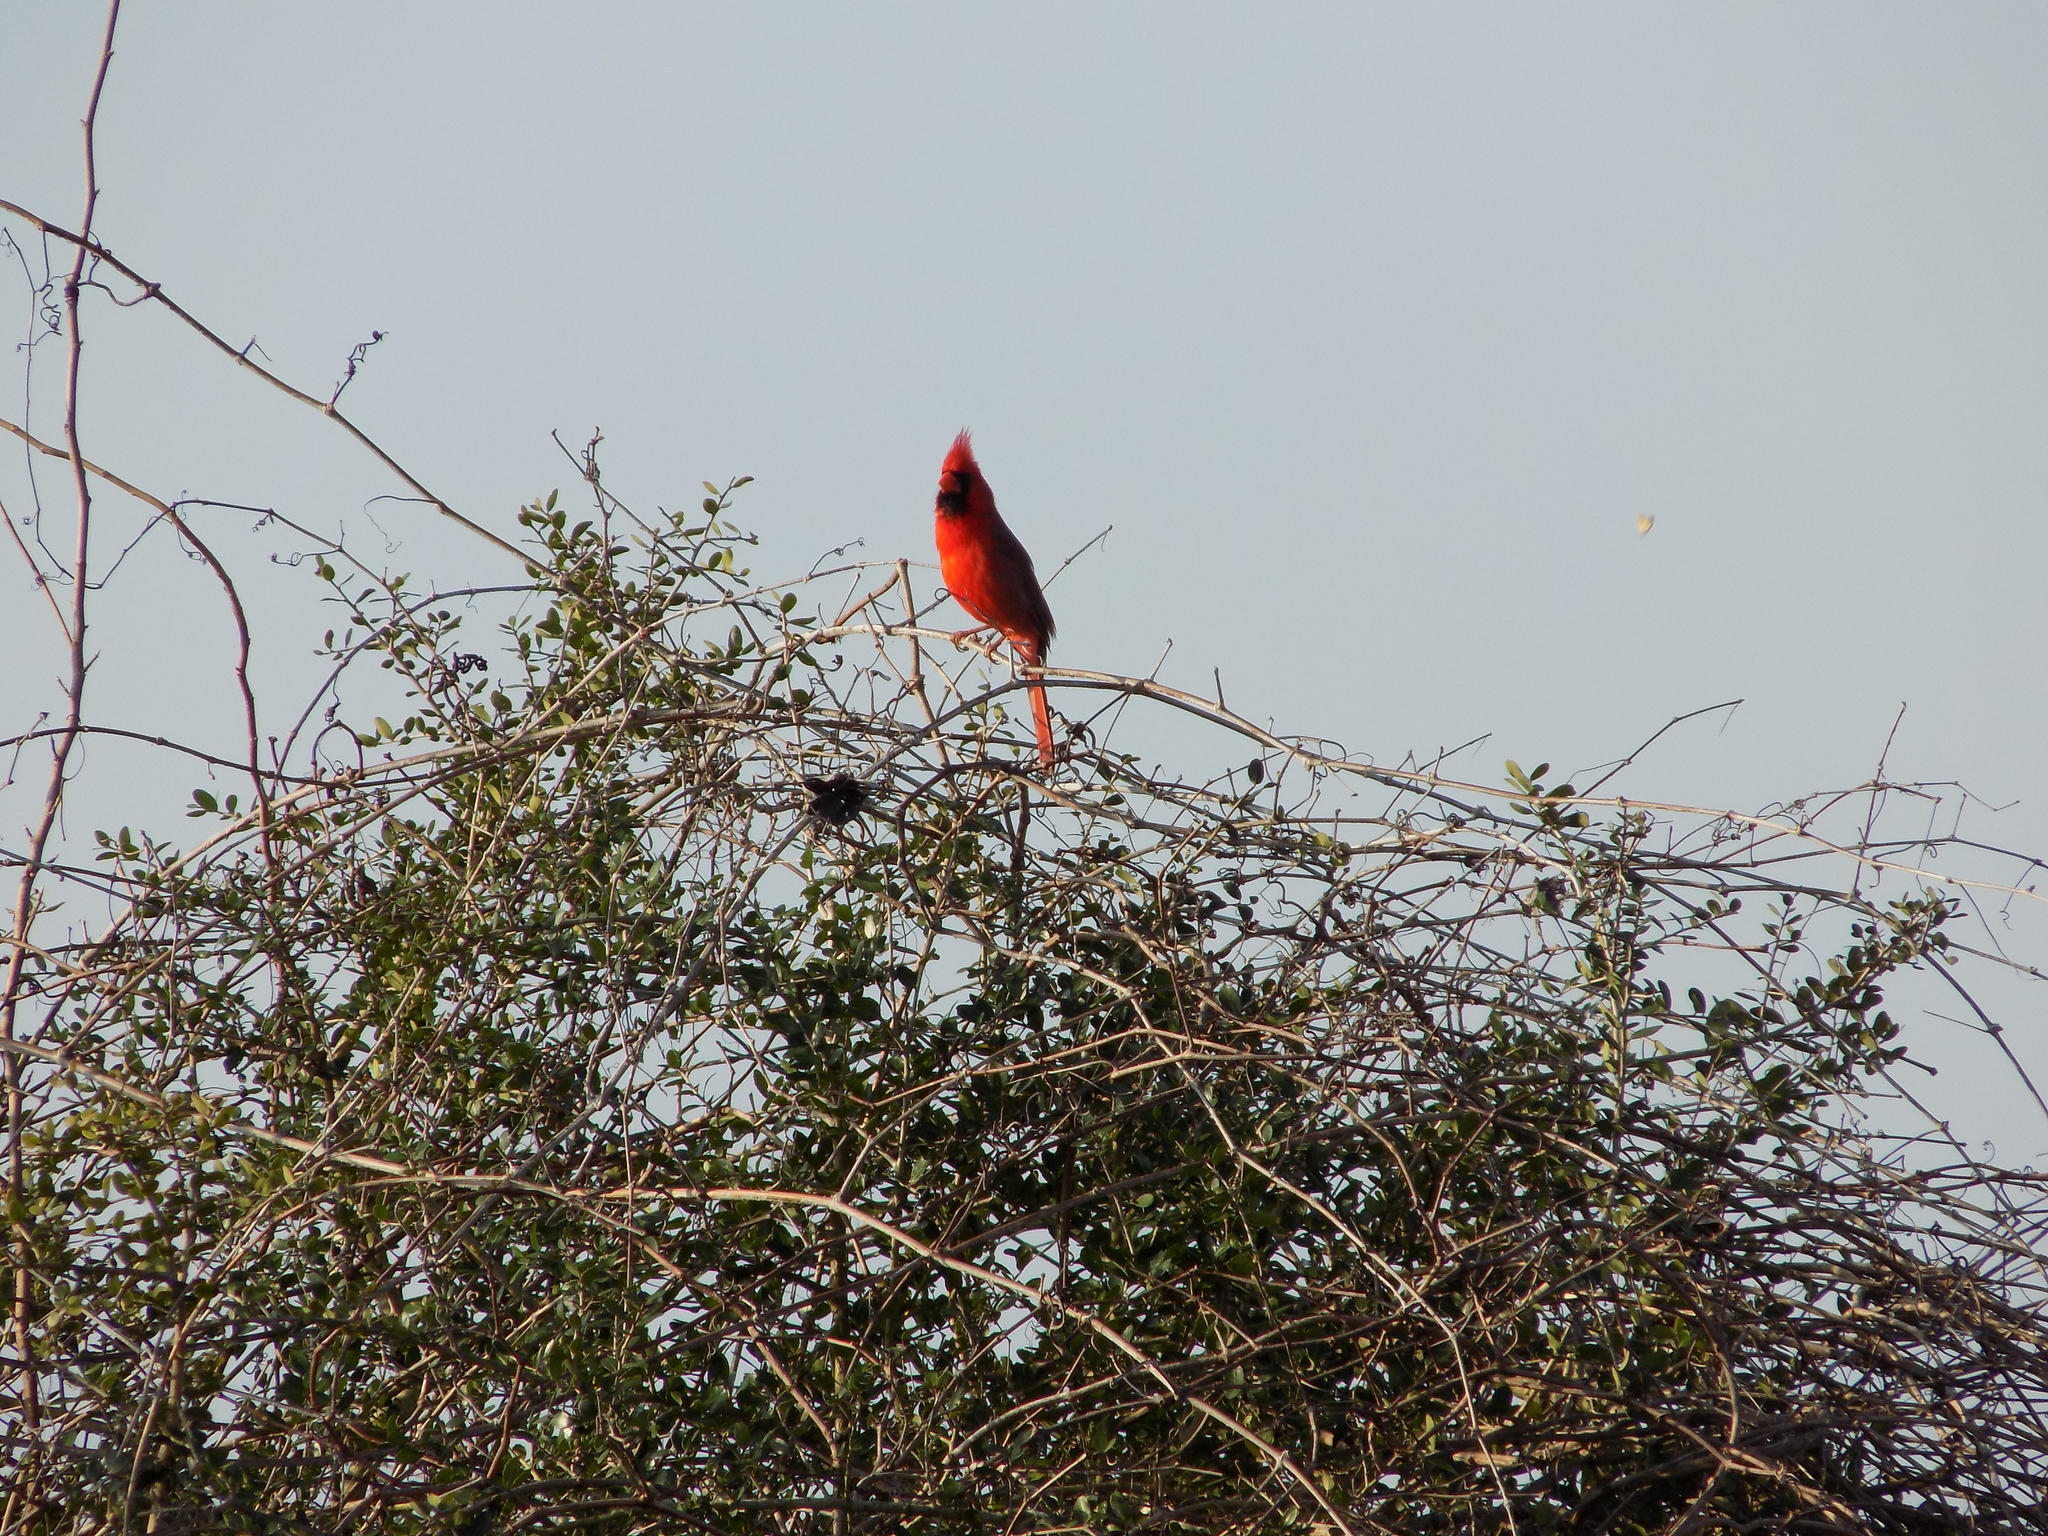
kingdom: Animalia
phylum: Chordata
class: Aves
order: Passeriformes
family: Cardinalidae
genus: Cardinalis
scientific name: Cardinalis cardinalis
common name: Northern cardinal
